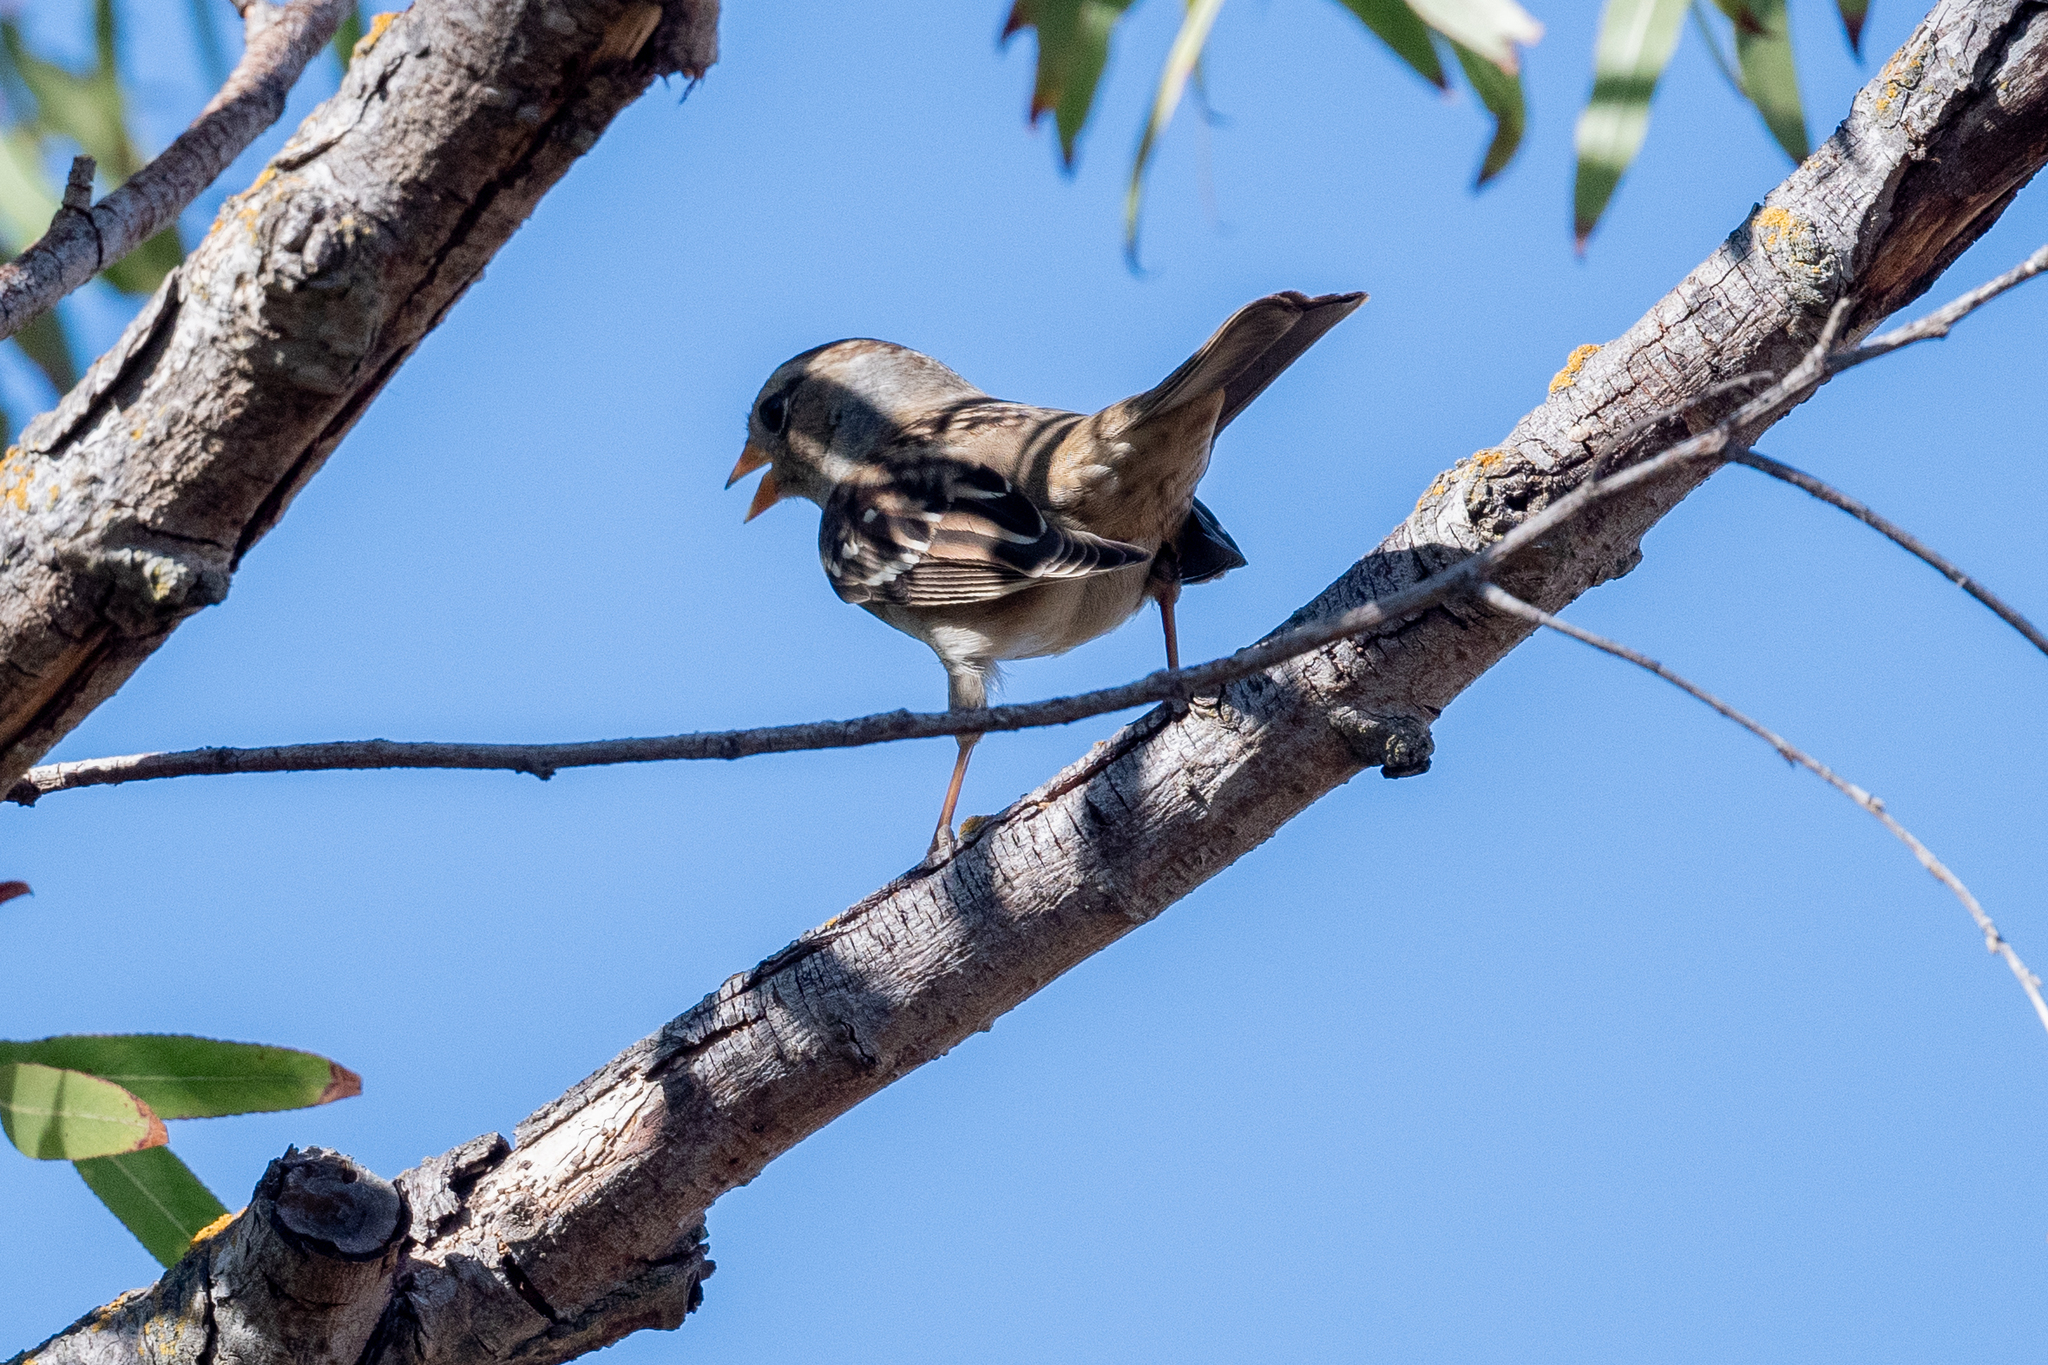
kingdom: Animalia
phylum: Chordata
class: Aves
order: Passeriformes
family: Passerellidae
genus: Zonotrichia
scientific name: Zonotrichia leucophrys
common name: White-crowned sparrow
